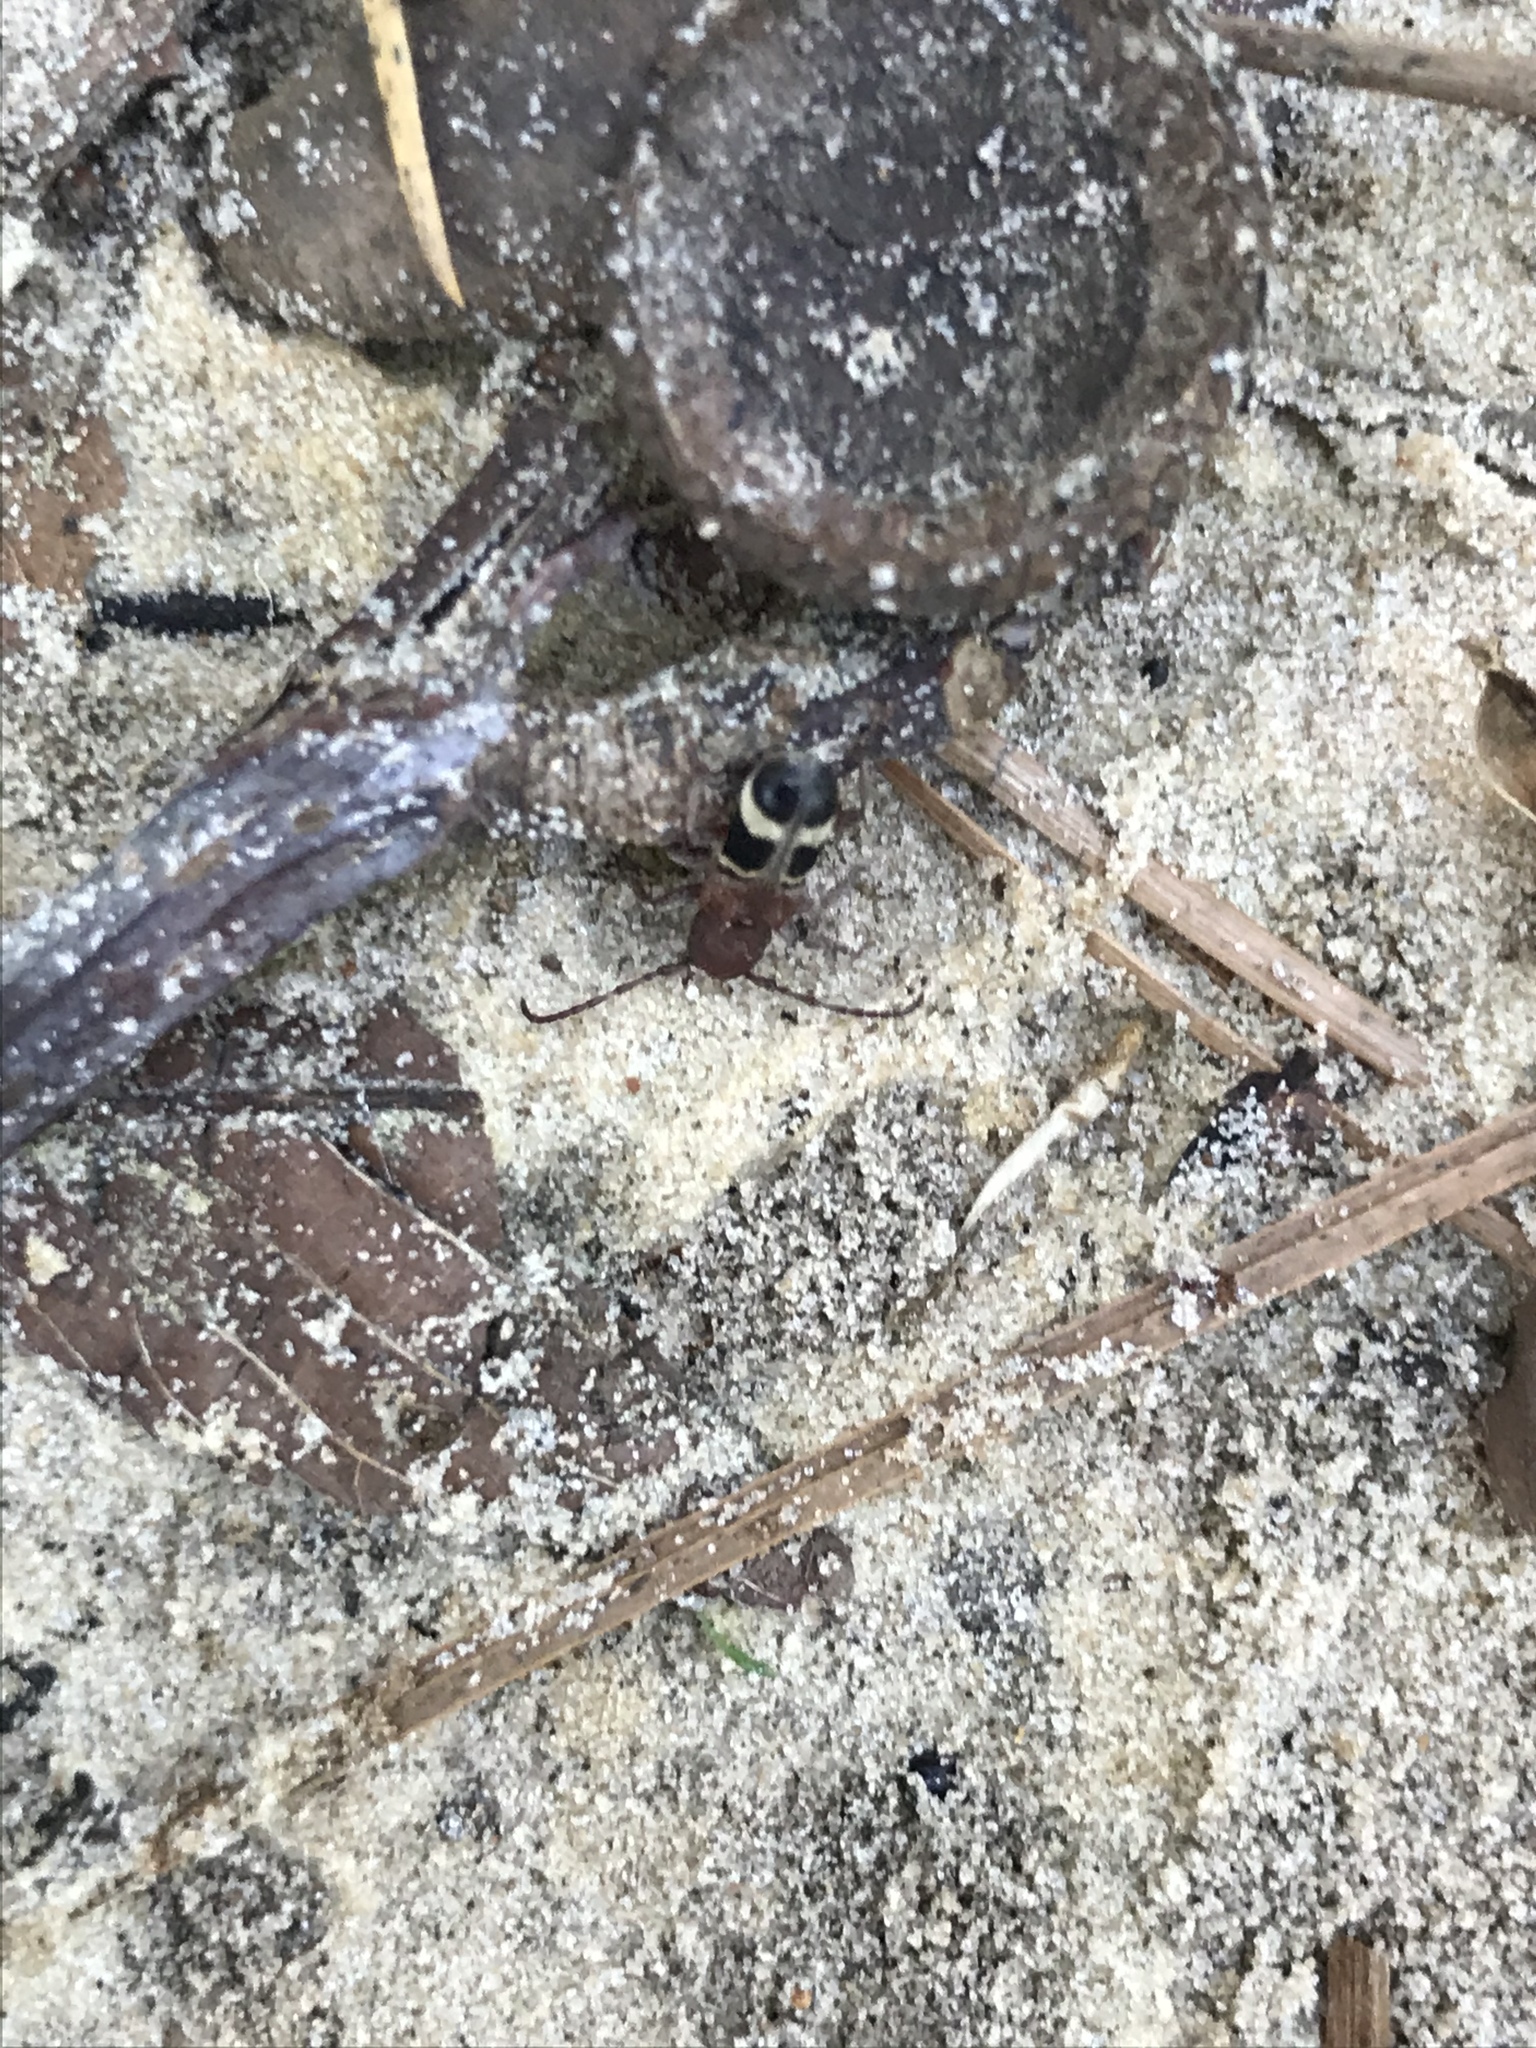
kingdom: Animalia
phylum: Arthropoda
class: Insecta
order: Coleoptera
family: Cerambycidae
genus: Psenocerus
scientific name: Psenocerus supernotatus
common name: Currant-tip borer
